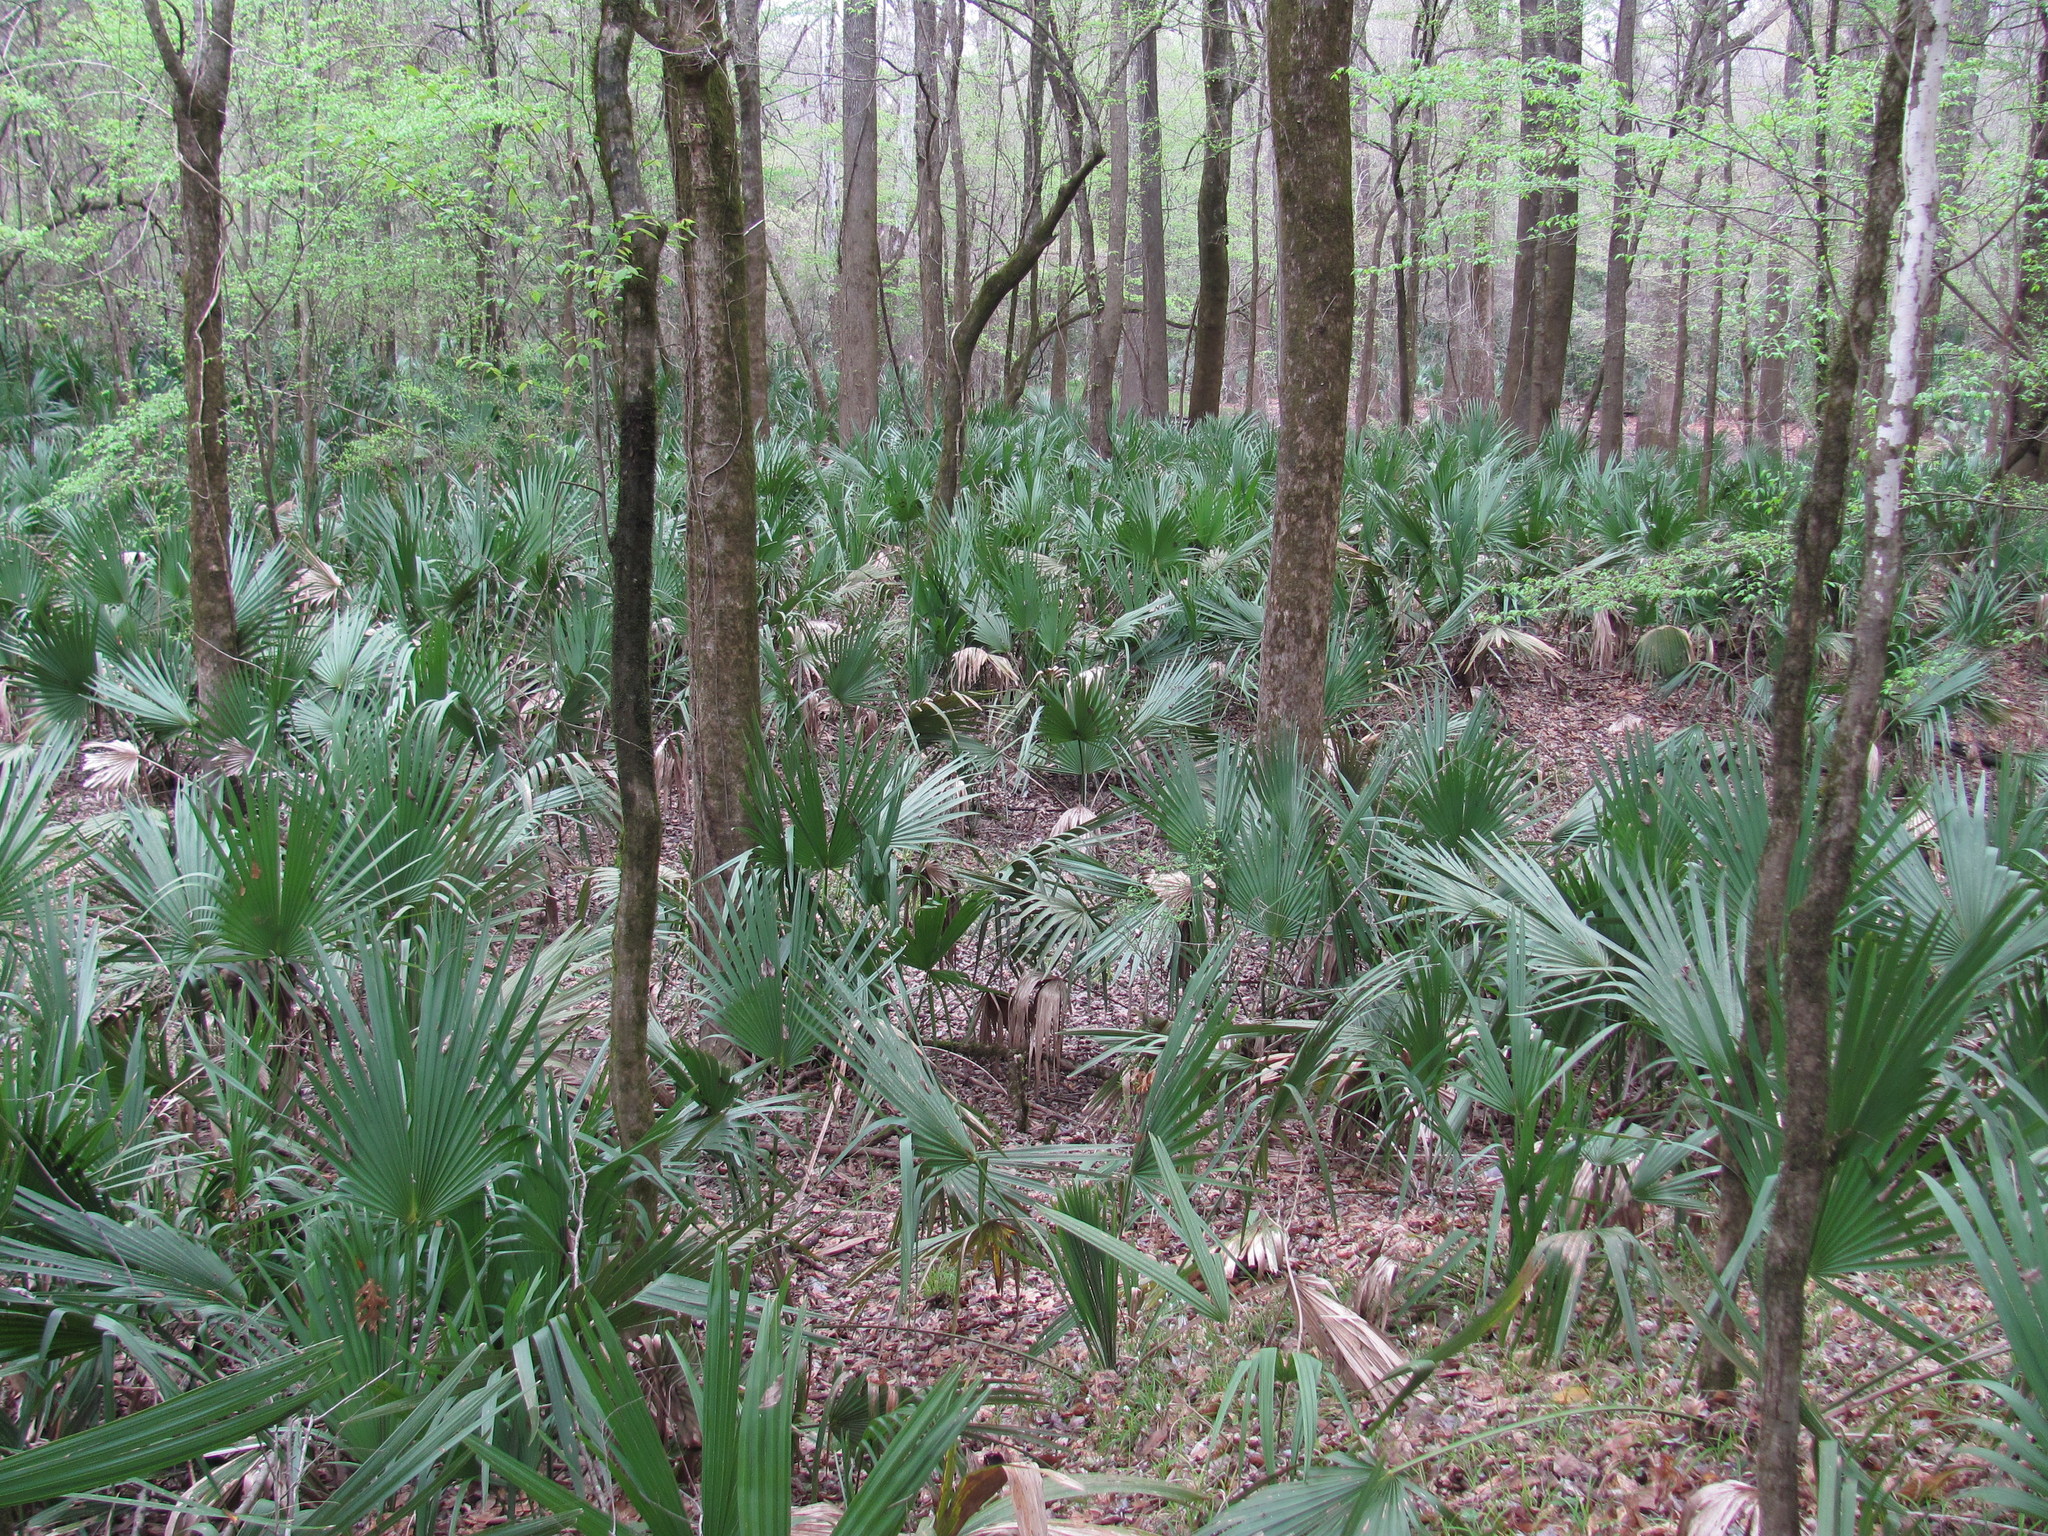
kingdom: Plantae
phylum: Tracheophyta
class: Liliopsida
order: Arecales
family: Arecaceae
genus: Sabal
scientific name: Sabal minor
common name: Dwarf palmetto
